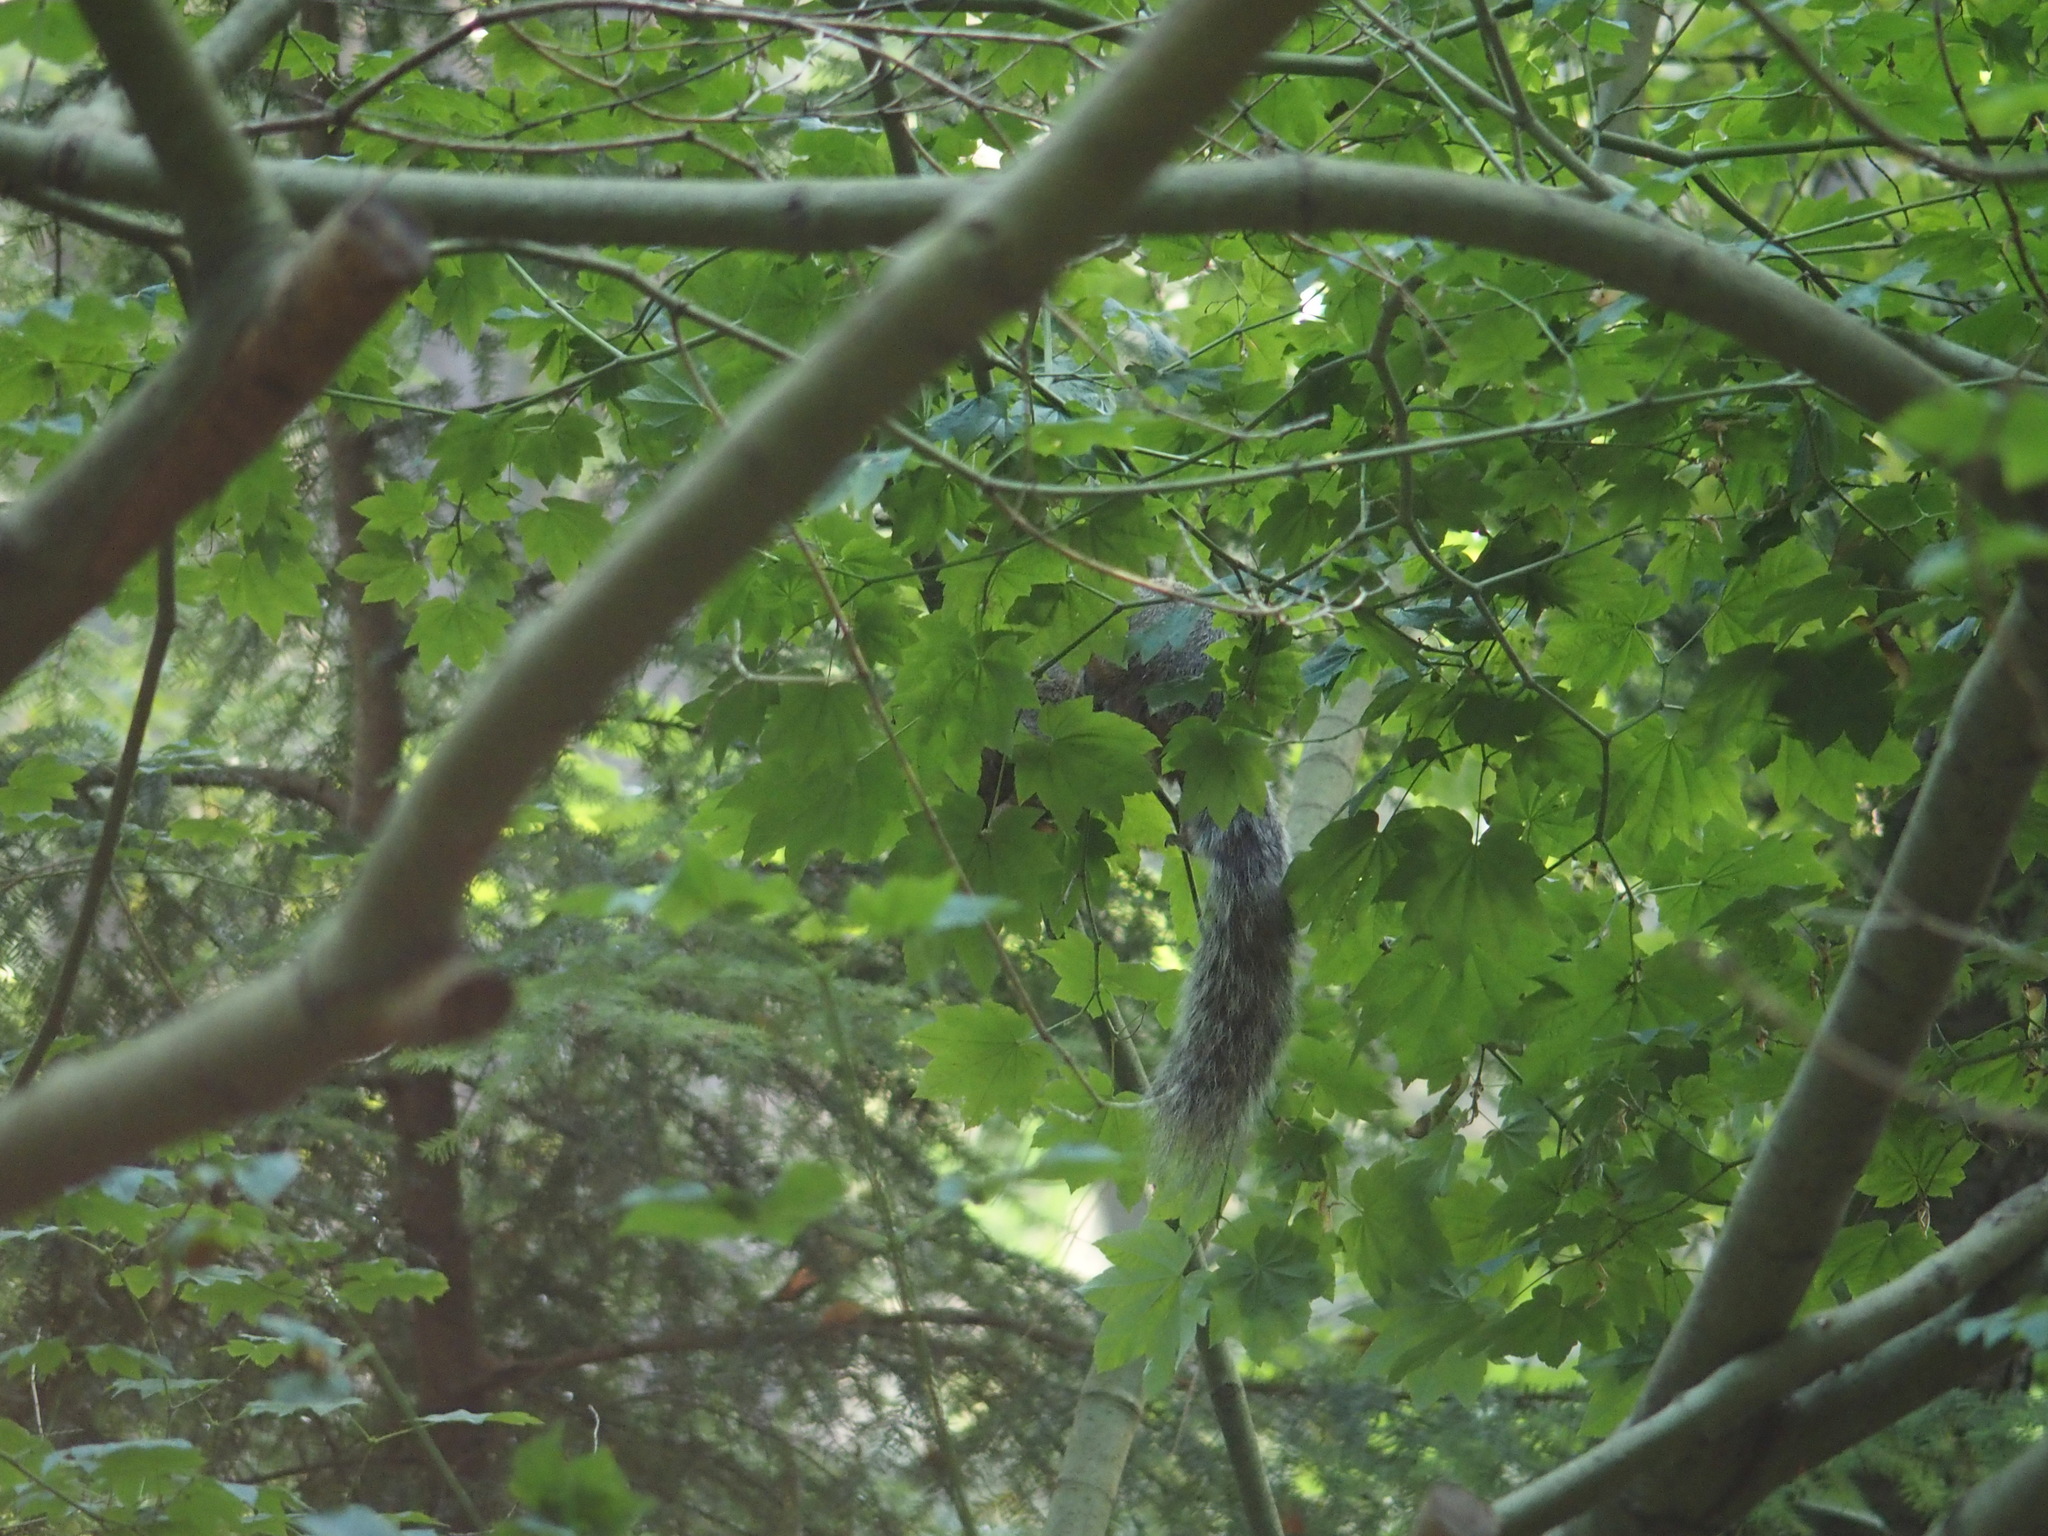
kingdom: Animalia
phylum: Chordata
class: Mammalia
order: Rodentia
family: Sciuridae
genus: Sciurus
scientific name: Sciurus carolinensis
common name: Eastern gray squirrel
